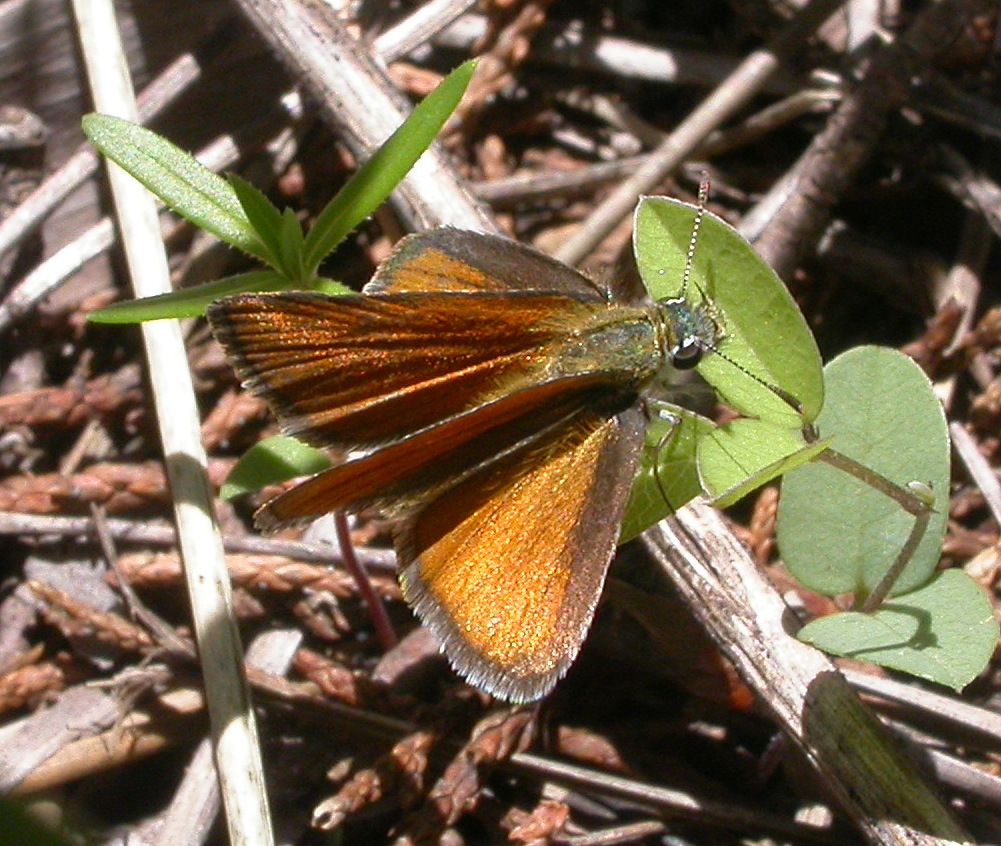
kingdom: Animalia
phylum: Arthropoda
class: Insecta
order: Lepidoptera
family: Hesperiidae
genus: Oarisma
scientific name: Oarisma edwardsii
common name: Edwards' skipperling
